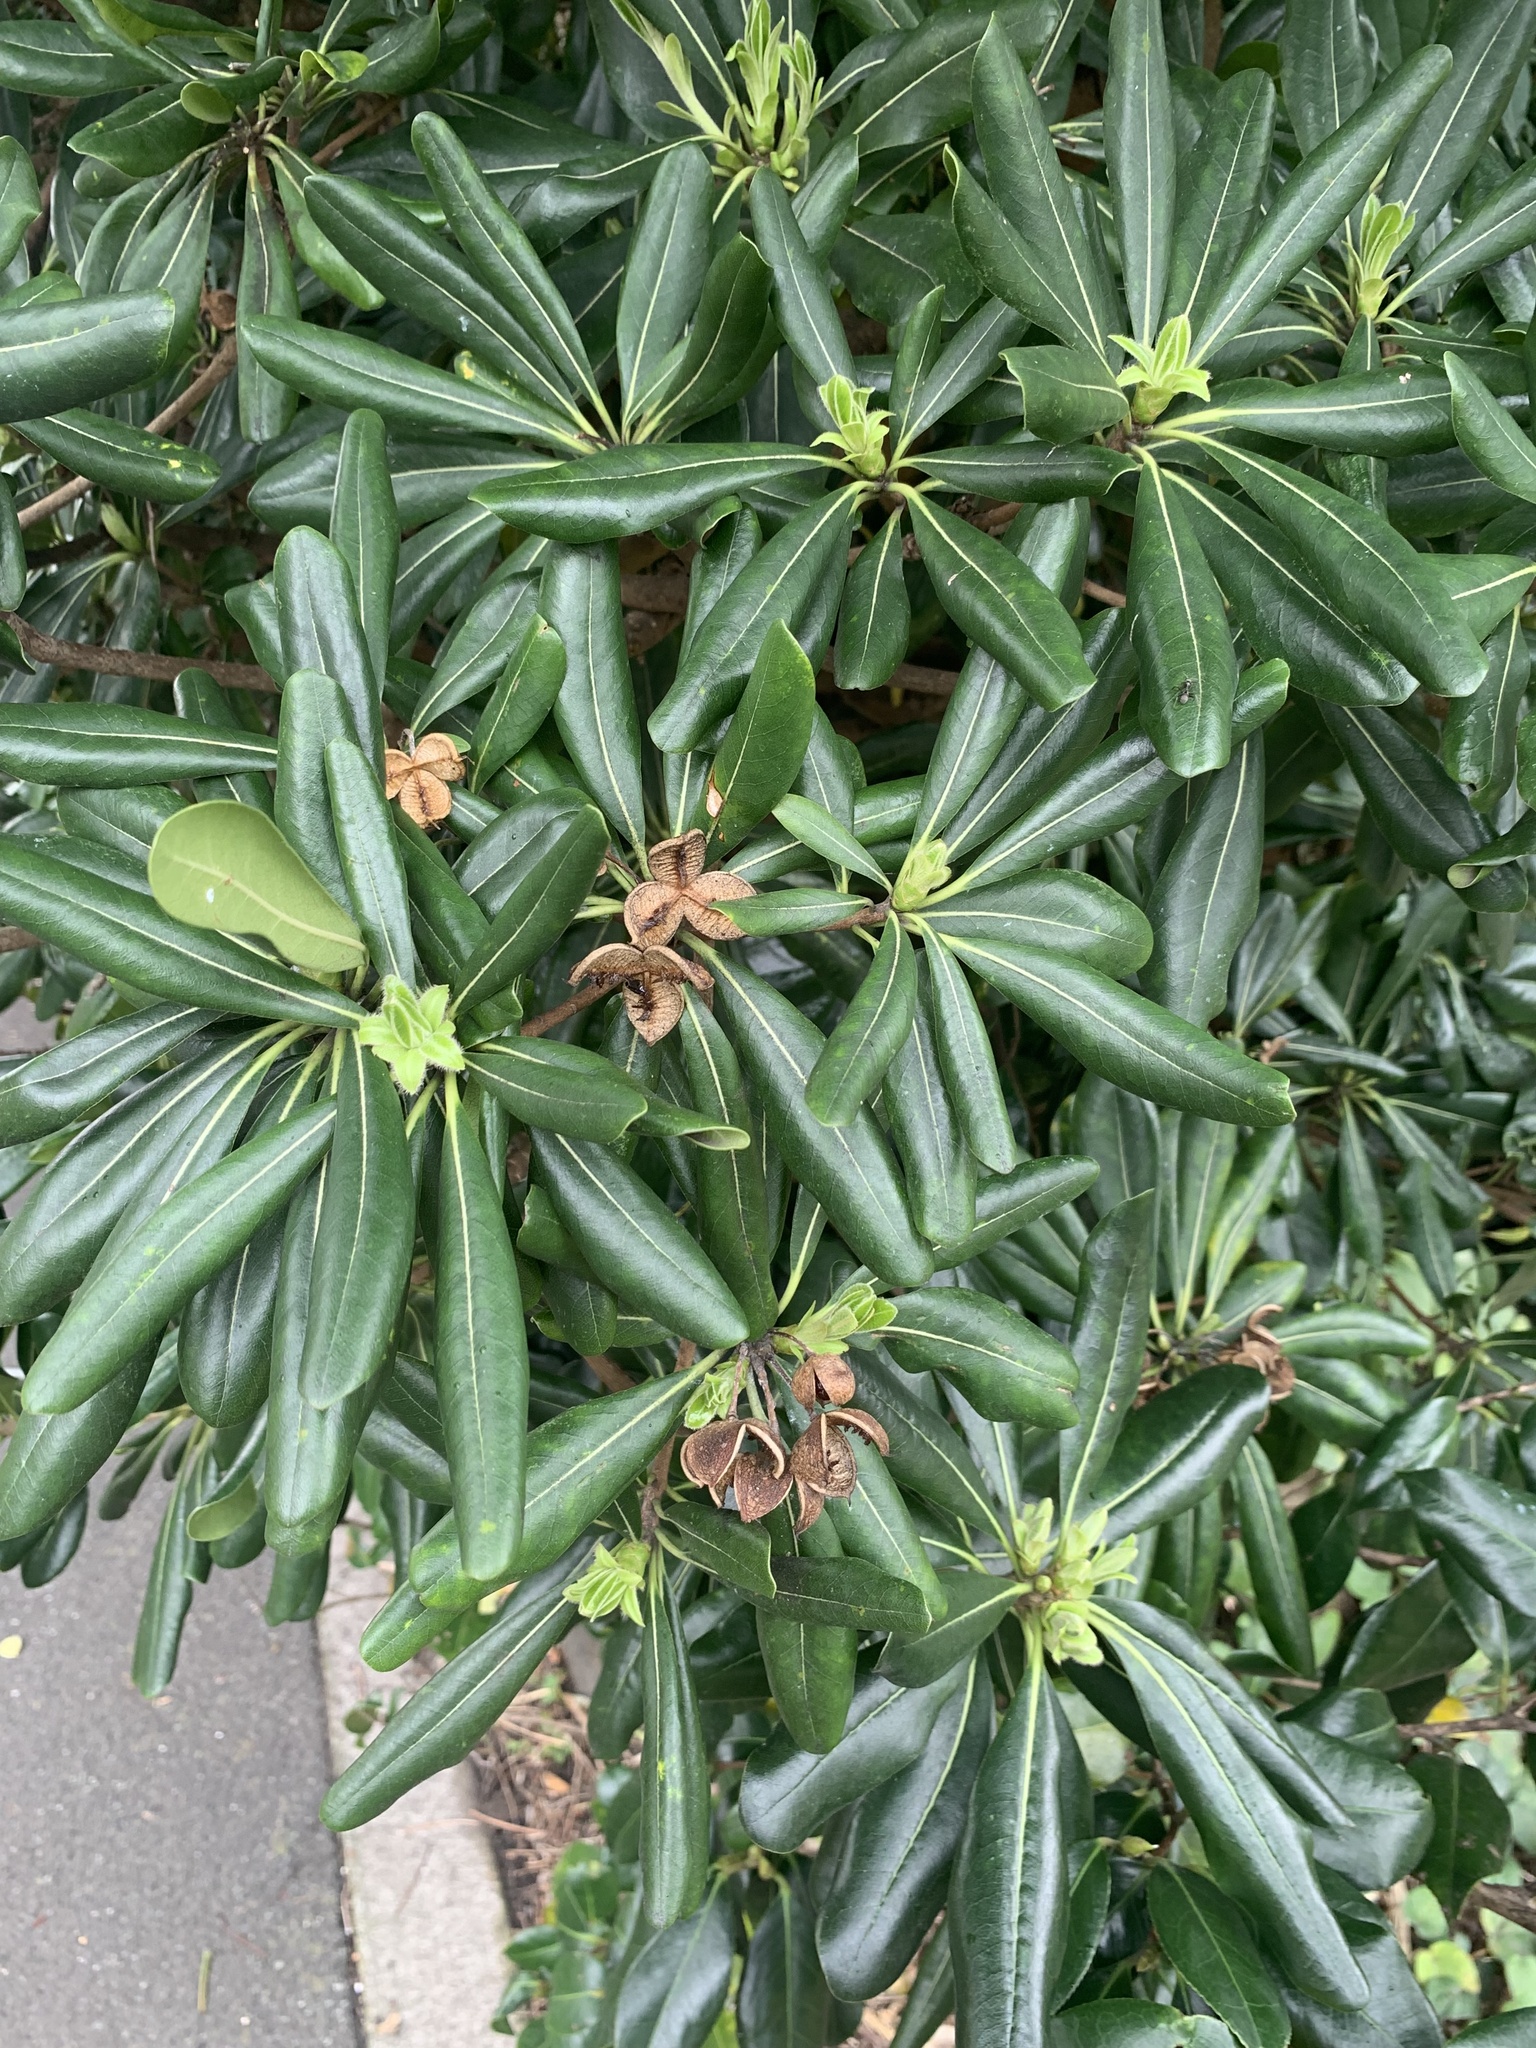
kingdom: Plantae
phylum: Tracheophyta
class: Magnoliopsida
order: Apiales
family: Pittosporaceae
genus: Pittosporum
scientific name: Pittosporum tobira
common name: Japanese cheesewood
